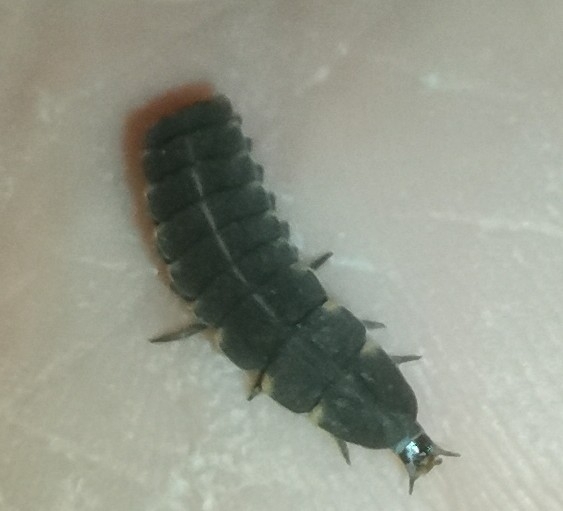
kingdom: Animalia
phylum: Arthropoda
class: Insecta
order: Coleoptera
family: Lampyridae
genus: Lampyris
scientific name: Lampyris noctiluca
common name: Glow-worm
